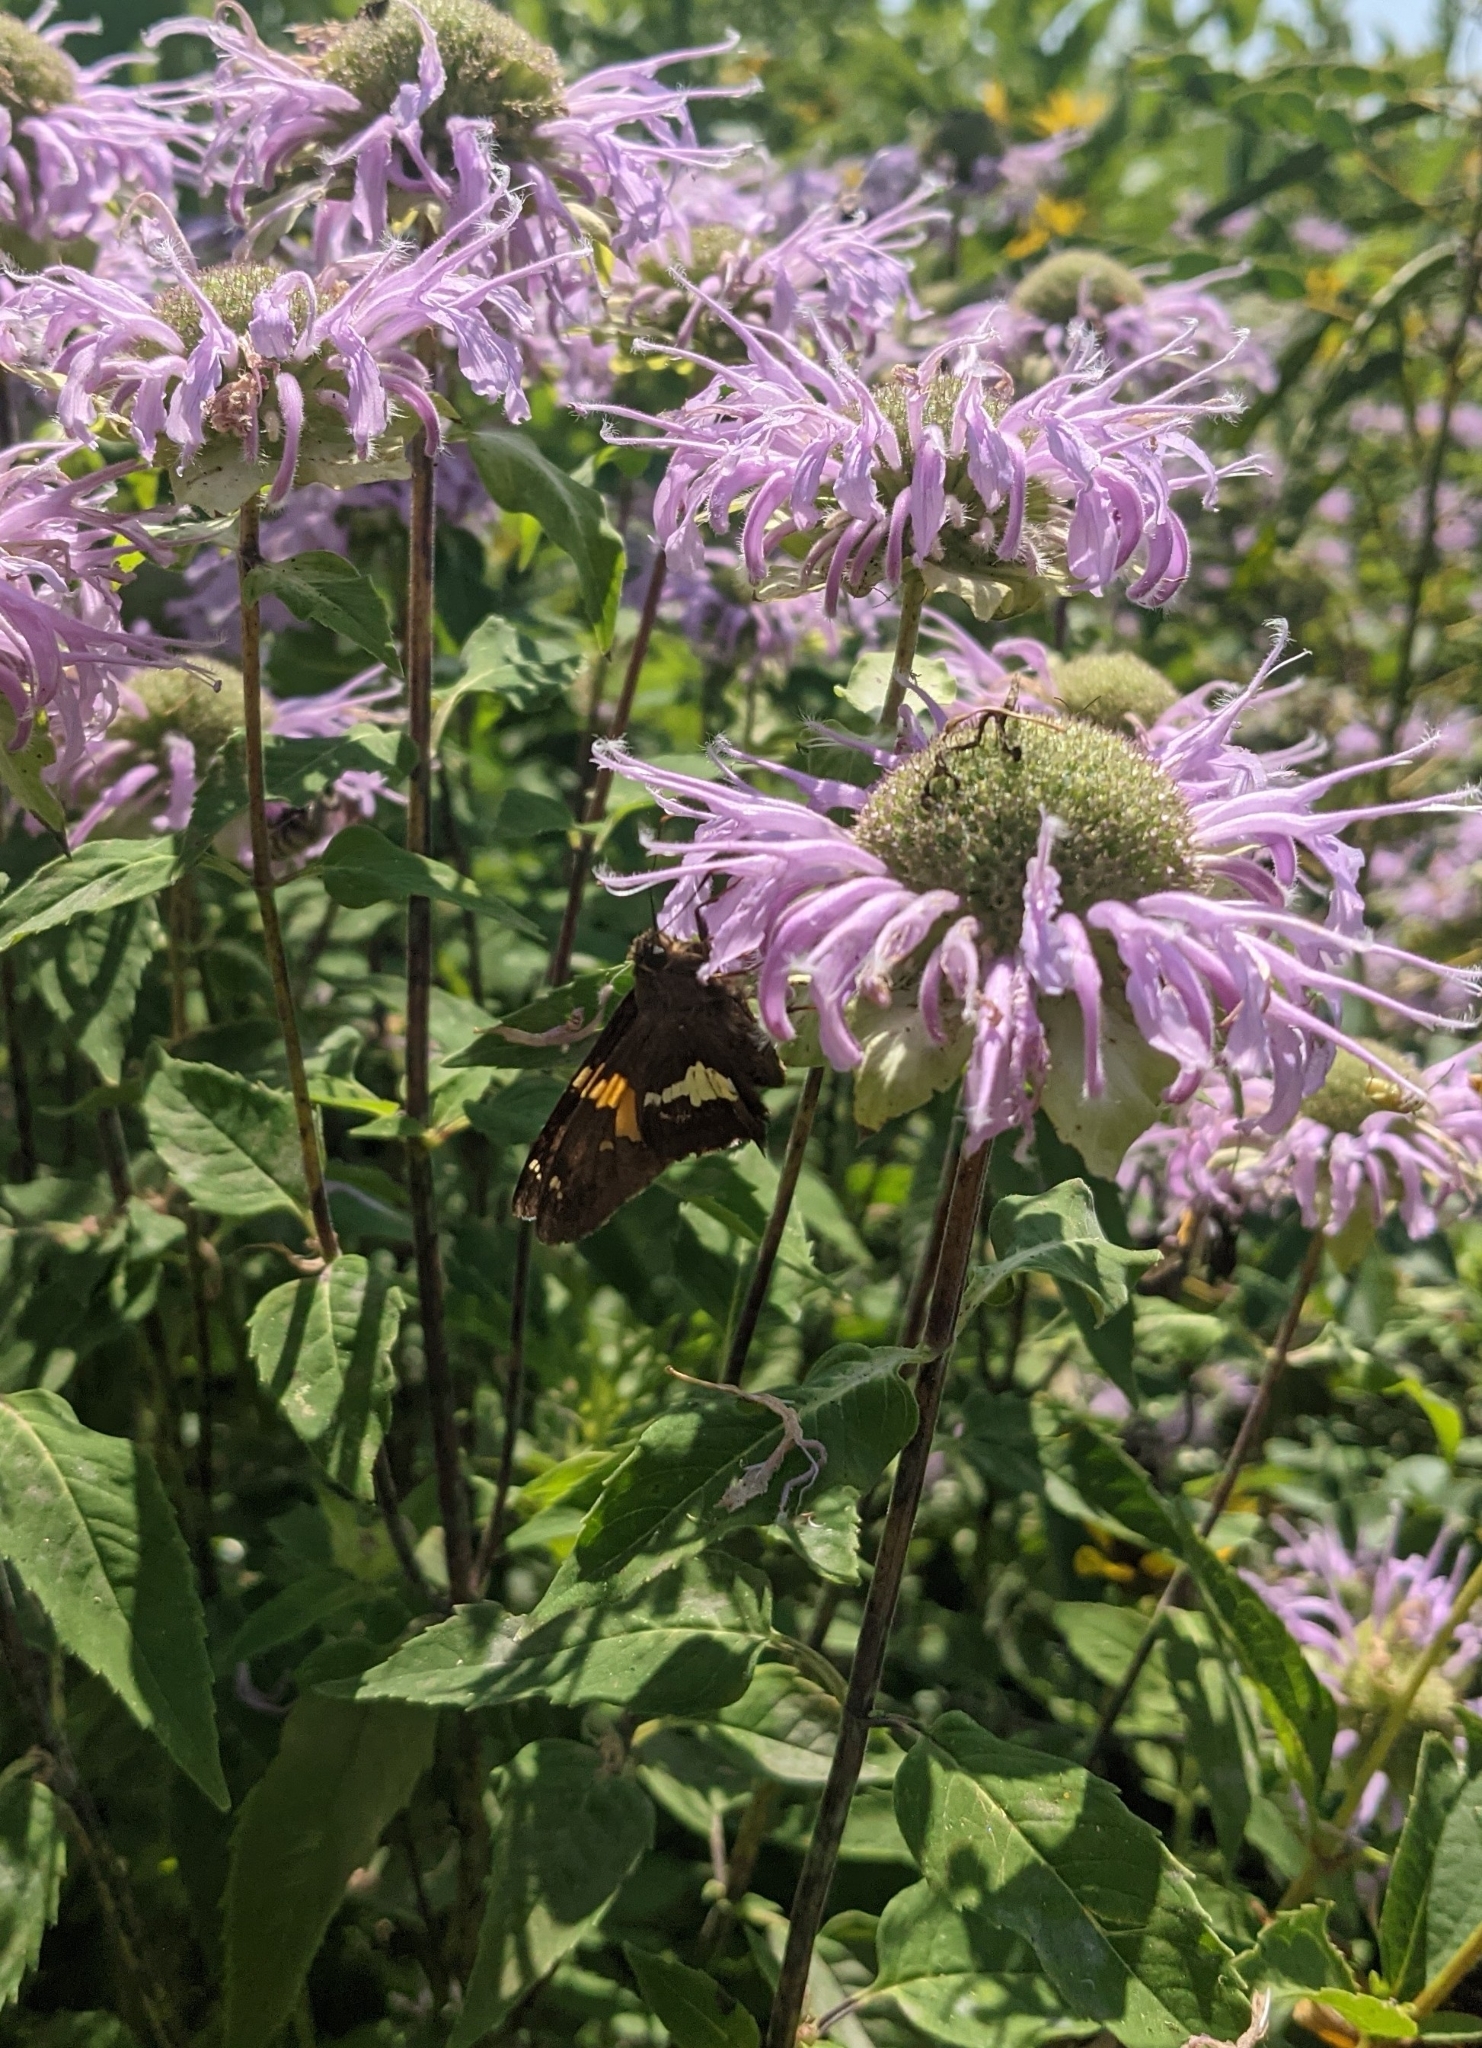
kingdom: Animalia
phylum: Arthropoda
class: Insecta
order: Lepidoptera
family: Hesperiidae
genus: Epargyreus
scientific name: Epargyreus clarus
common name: Silver-spotted skipper
